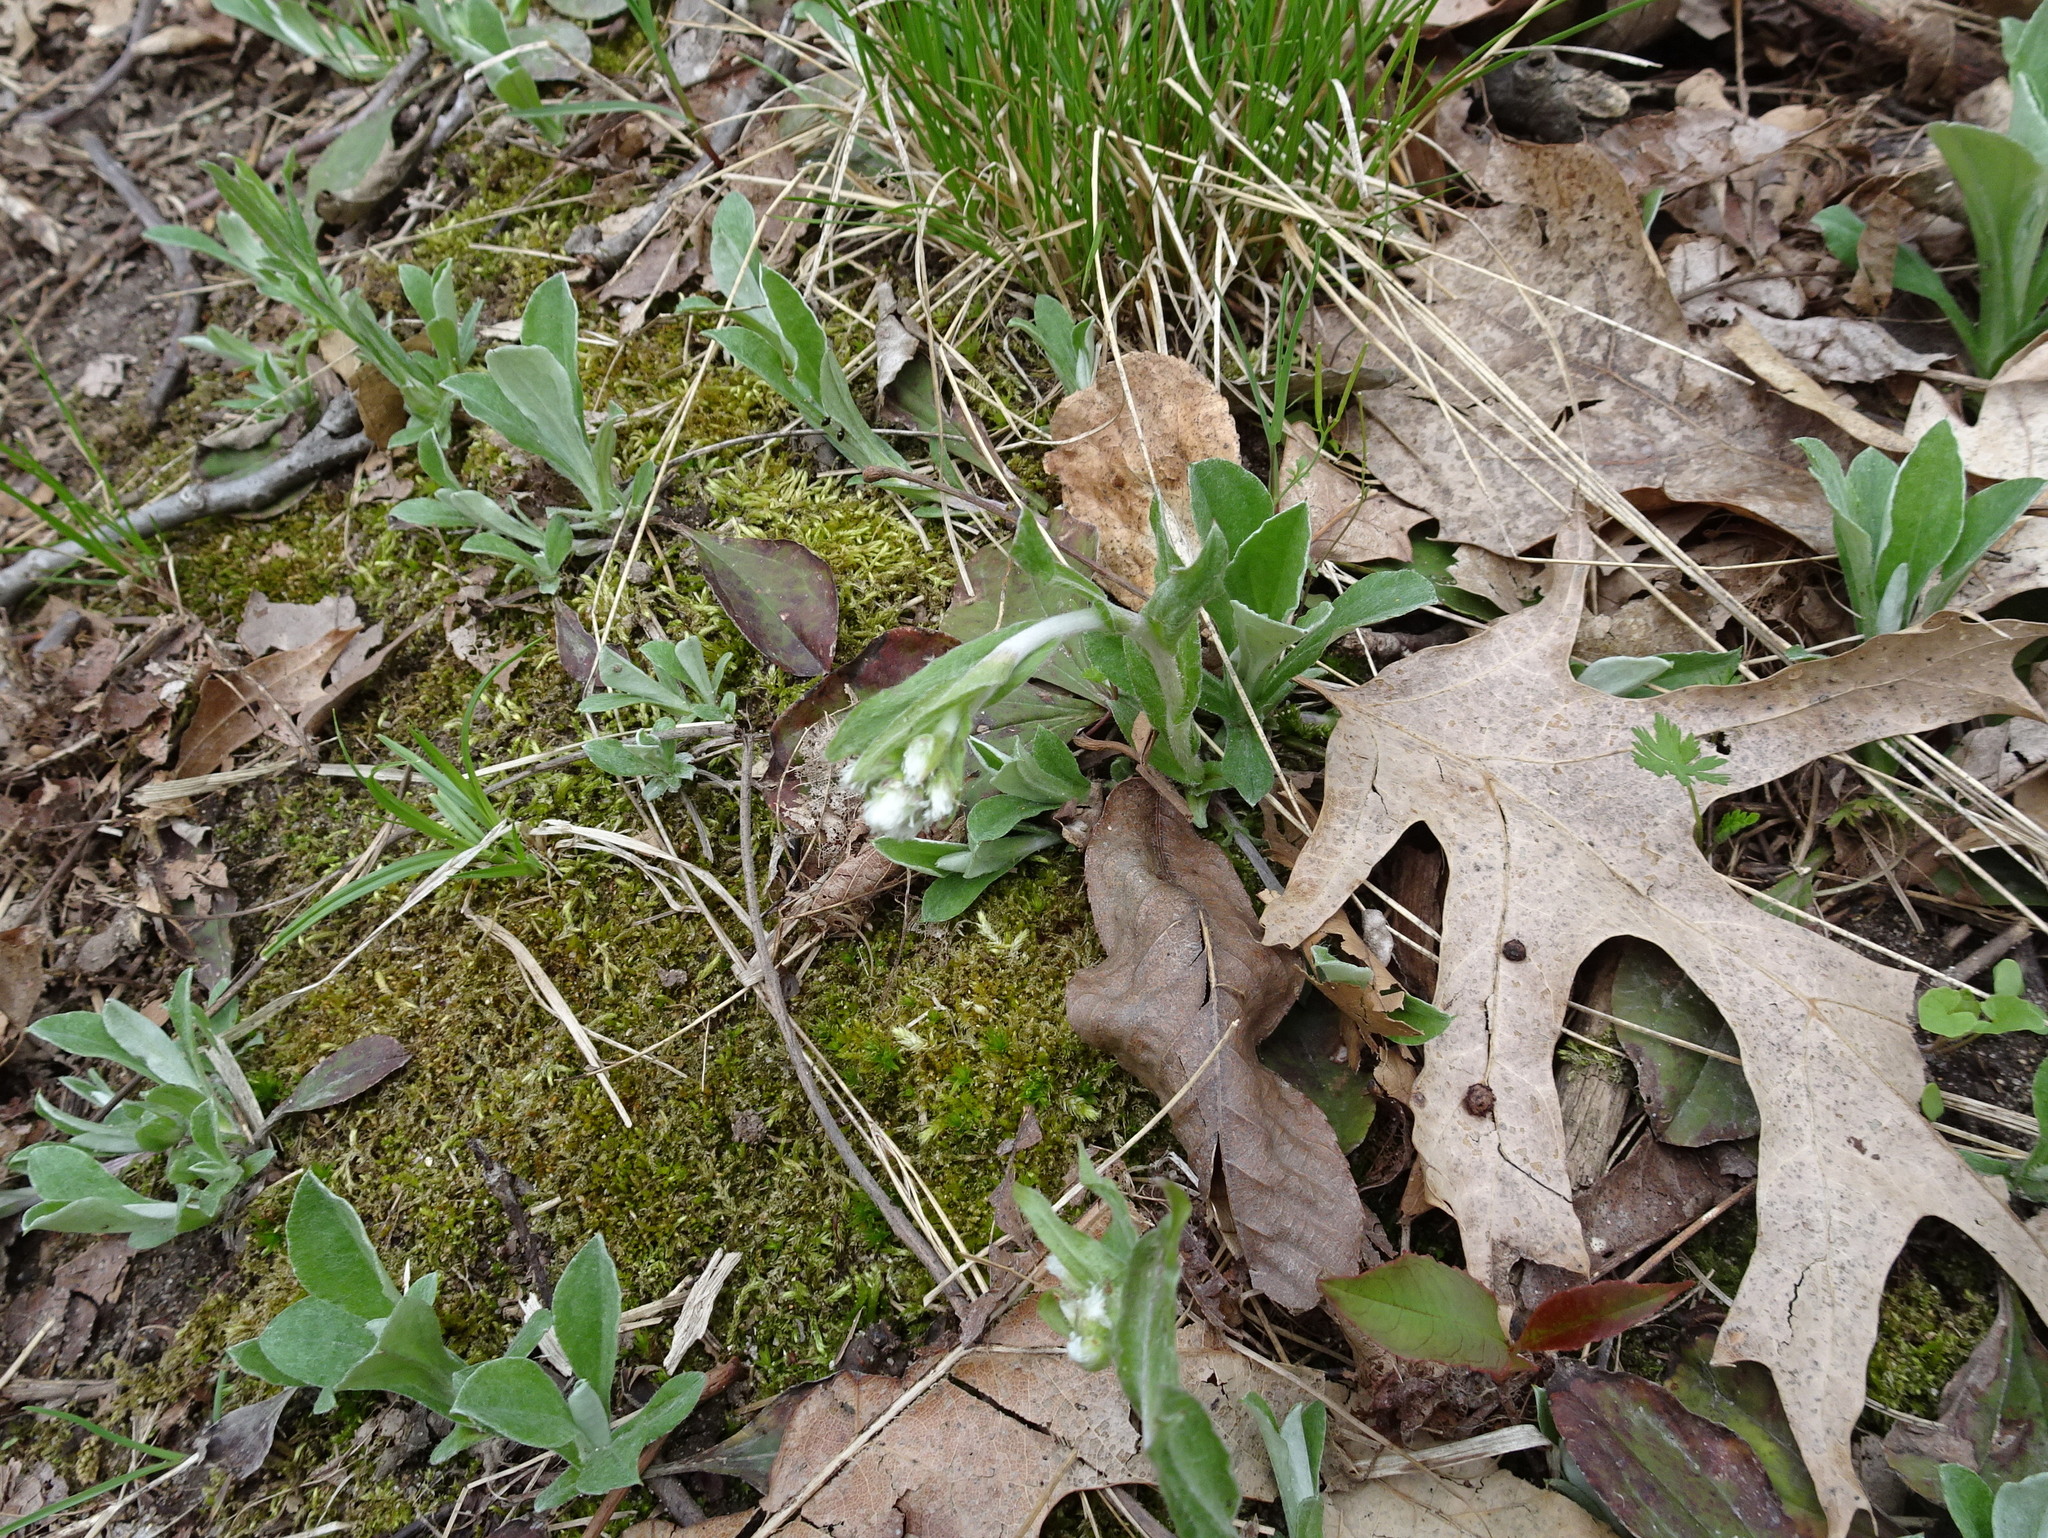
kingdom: Plantae
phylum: Tracheophyta
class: Magnoliopsida
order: Asterales
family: Asteraceae
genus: Antennaria
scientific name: Antennaria parlinii
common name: Parlin's pussytoes
